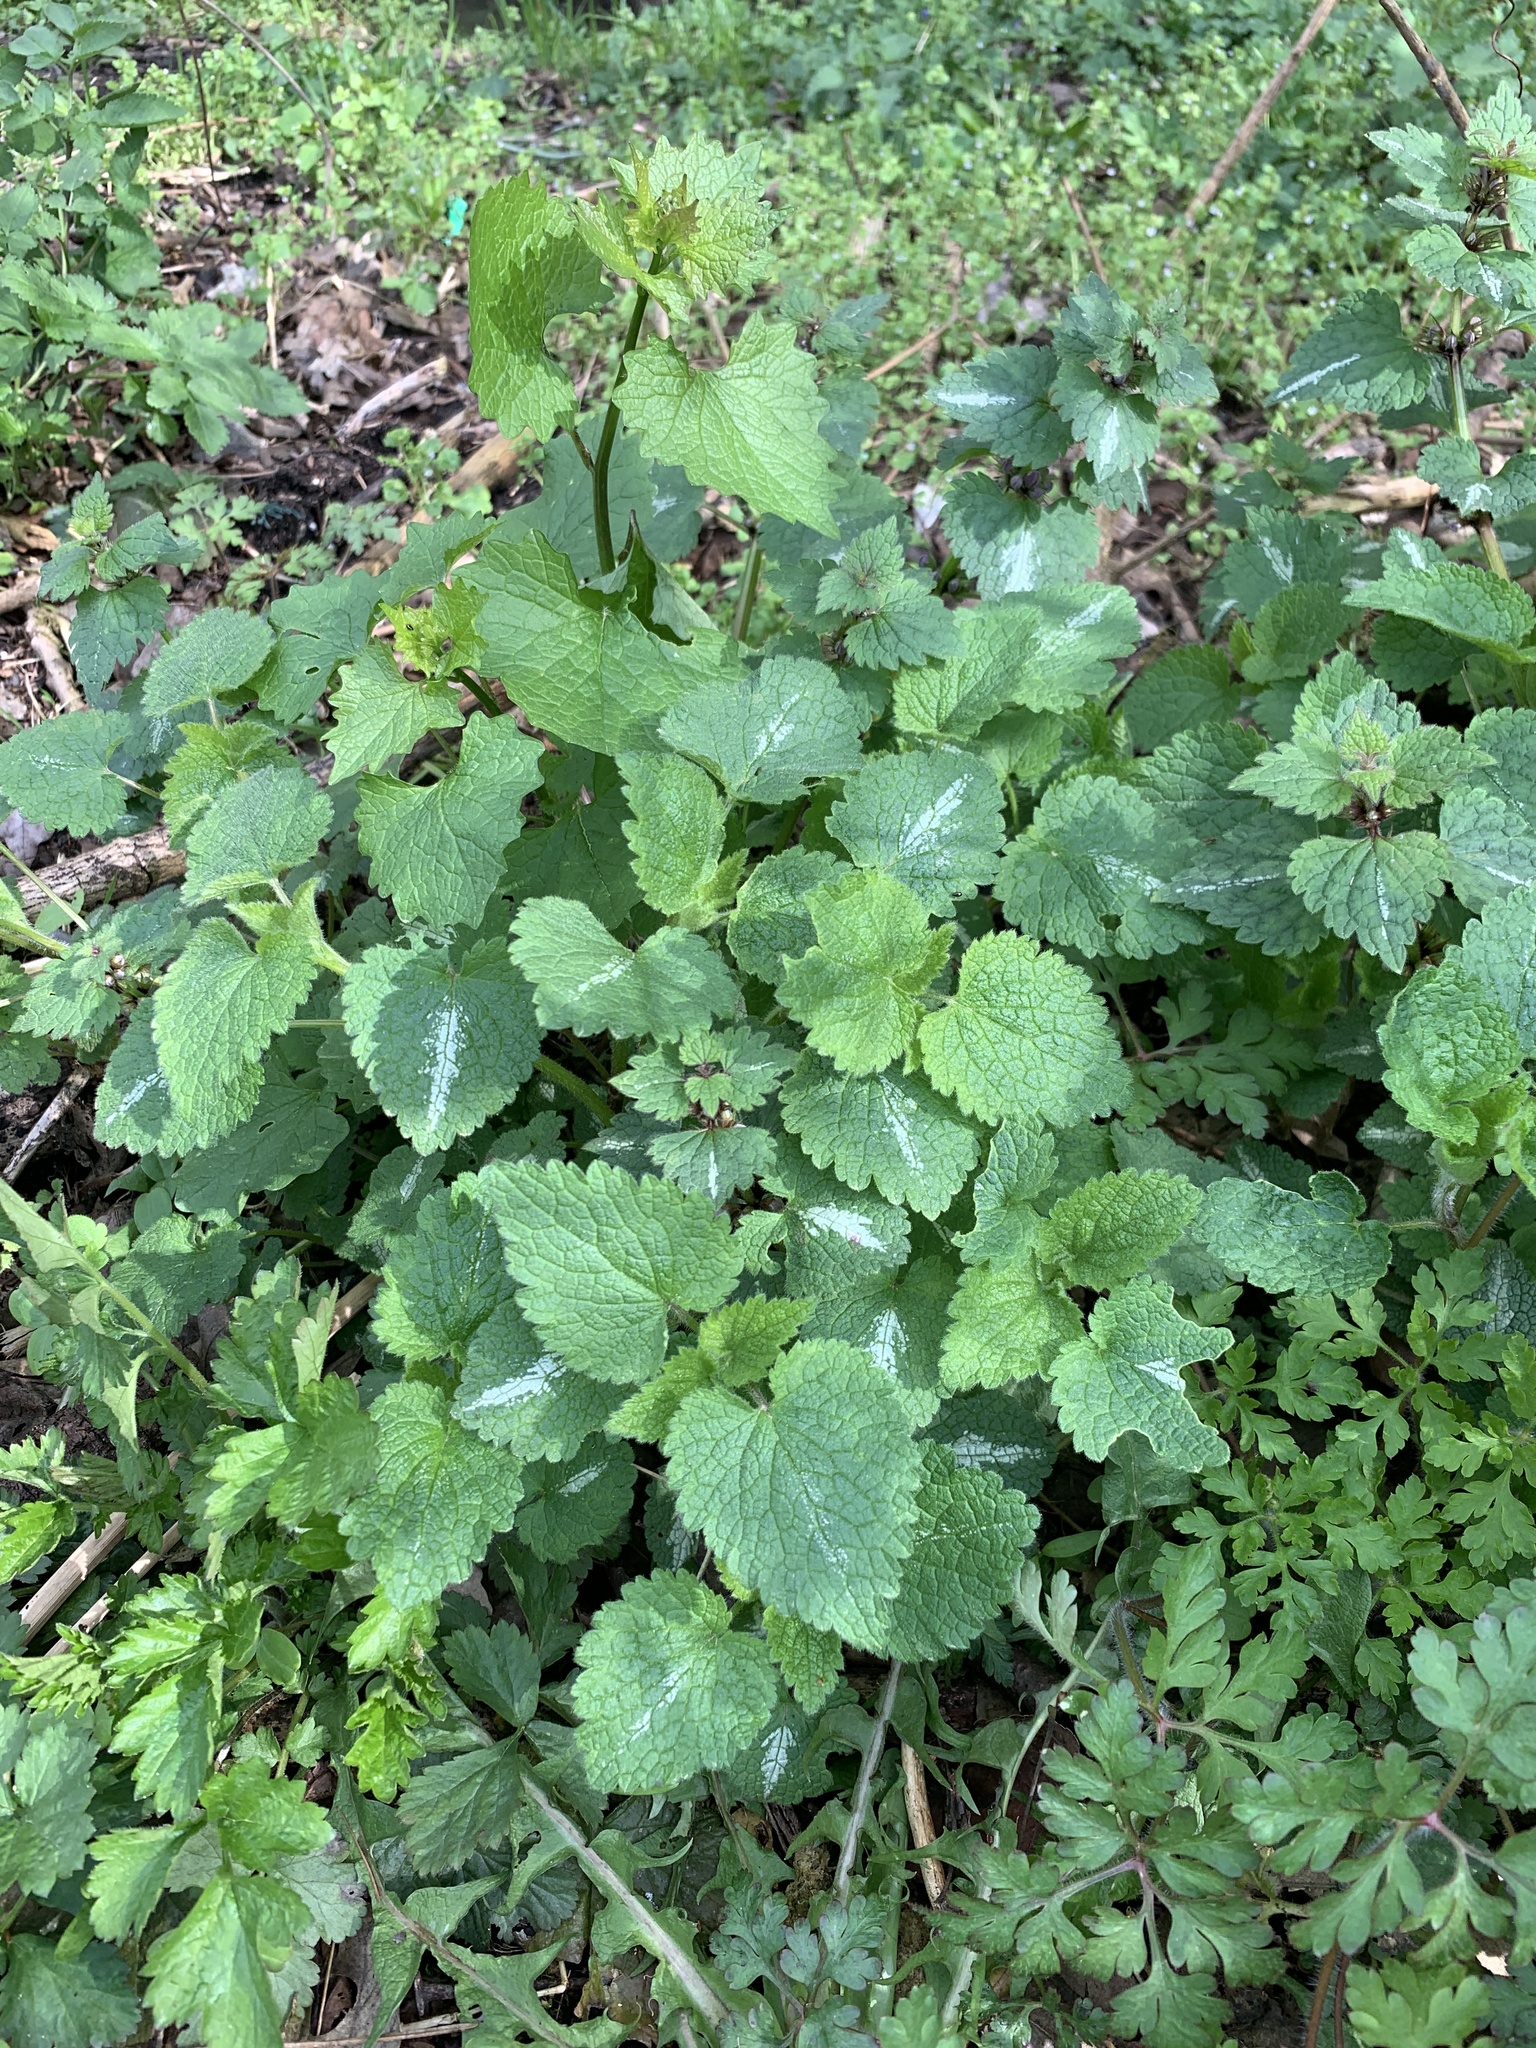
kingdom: Plantae
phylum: Tracheophyta
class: Magnoliopsida
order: Lamiales
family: Lamiaceae
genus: Lamium
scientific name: Lamium maculatum
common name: Spotted dead-nettle
